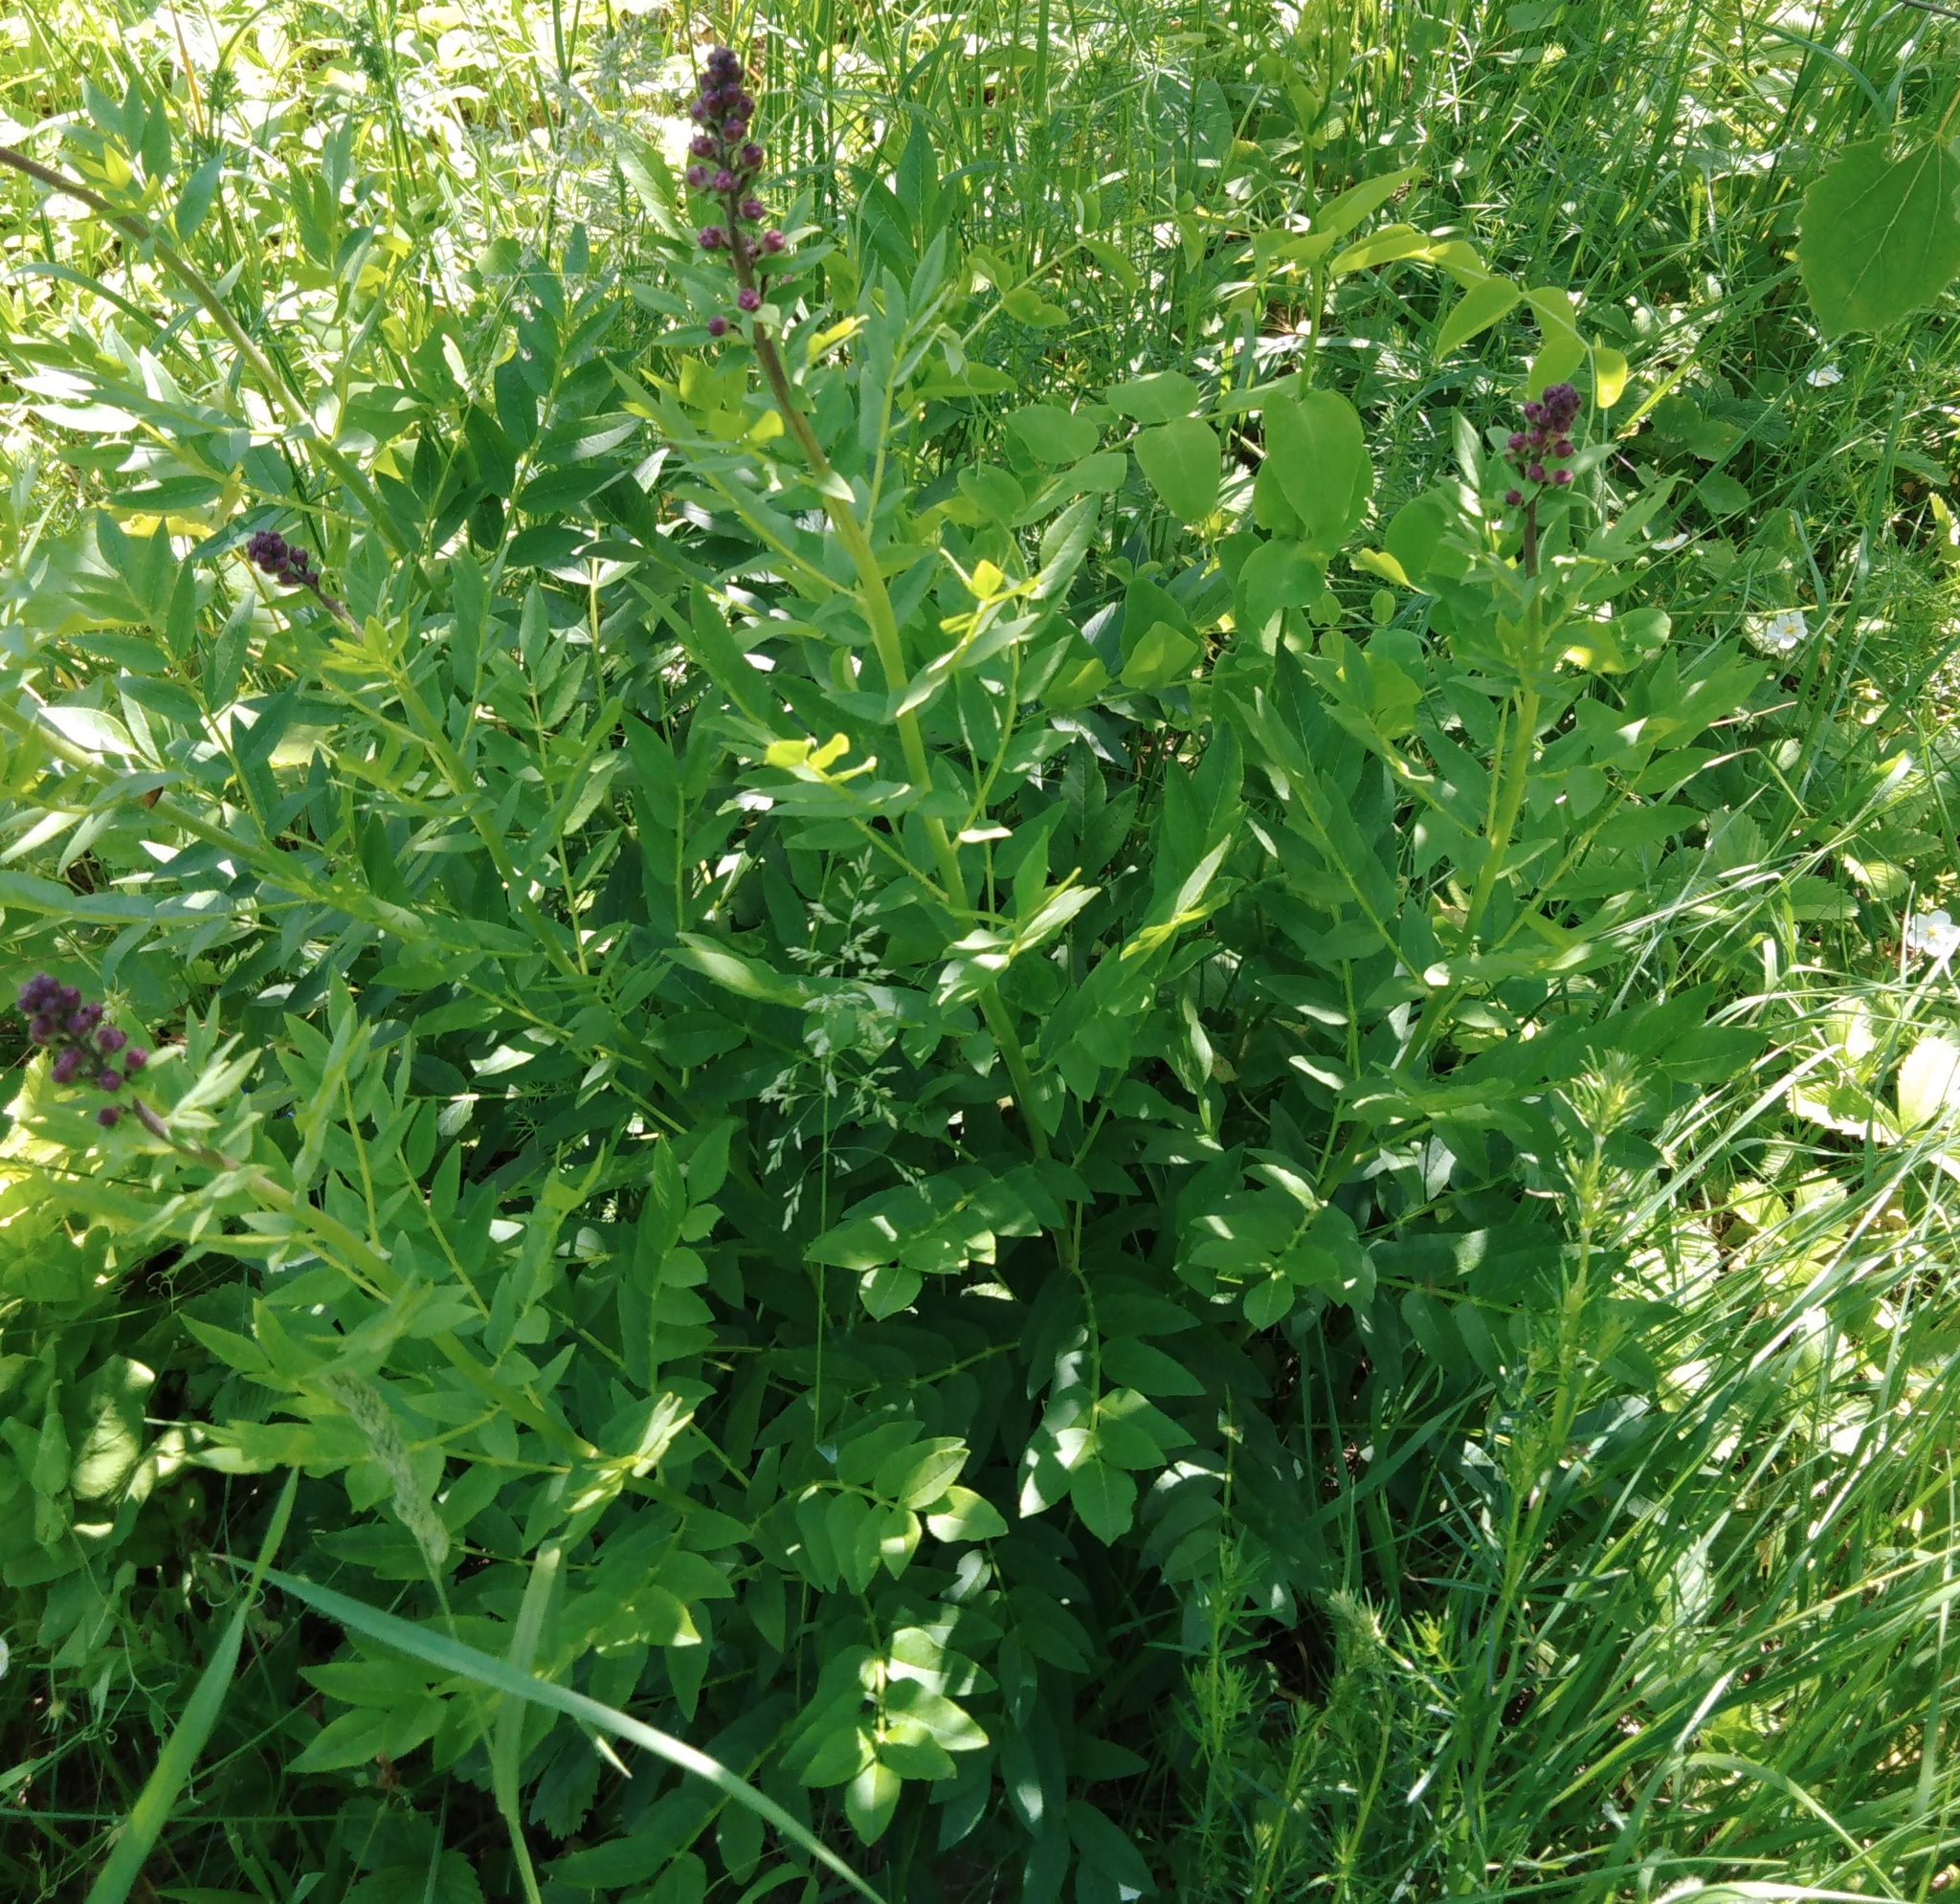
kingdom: Plantae
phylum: Tracheophyta
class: Magnoliopsida
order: Sapindales
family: Rutaceae
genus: Dictamnus
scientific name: Dictamnus albus
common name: Gasplant
